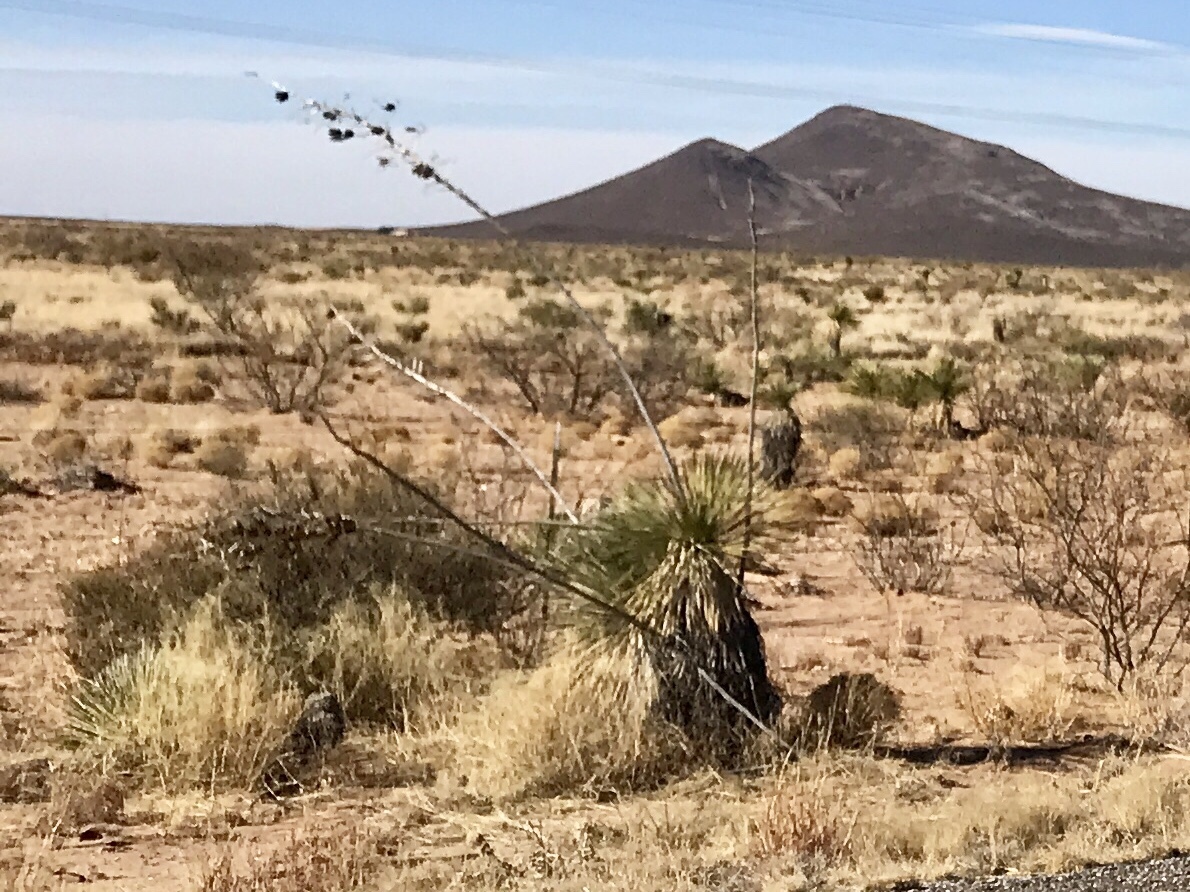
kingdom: Plantae
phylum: Tracheophyta
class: Liliopsida
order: Asparagales
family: Asparagaceae
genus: Yucca
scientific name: Yucca elata
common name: Palmella
